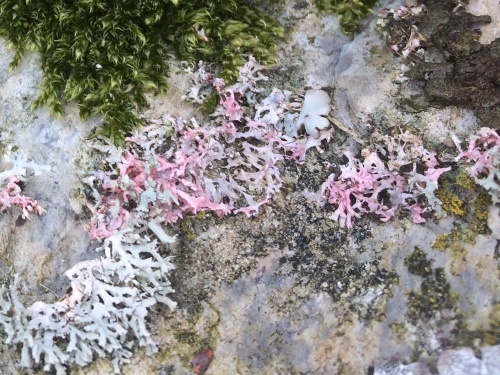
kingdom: Fungi
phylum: Basidiomycota
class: Agaricomycetes
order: Corticiales
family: Corticiaceae
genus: Laetisaria
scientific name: Laetisaria lichenicola
